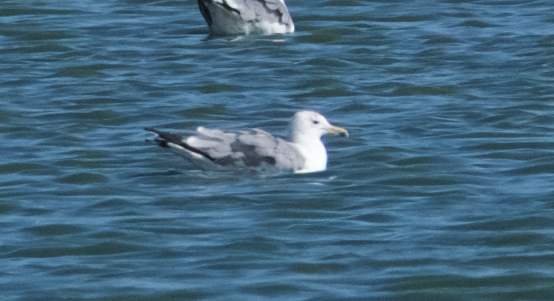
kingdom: Animalia
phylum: Chordata
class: Aves
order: Charadriiformes
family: Laridae
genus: Larus
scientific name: Larus californicus
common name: California gull
